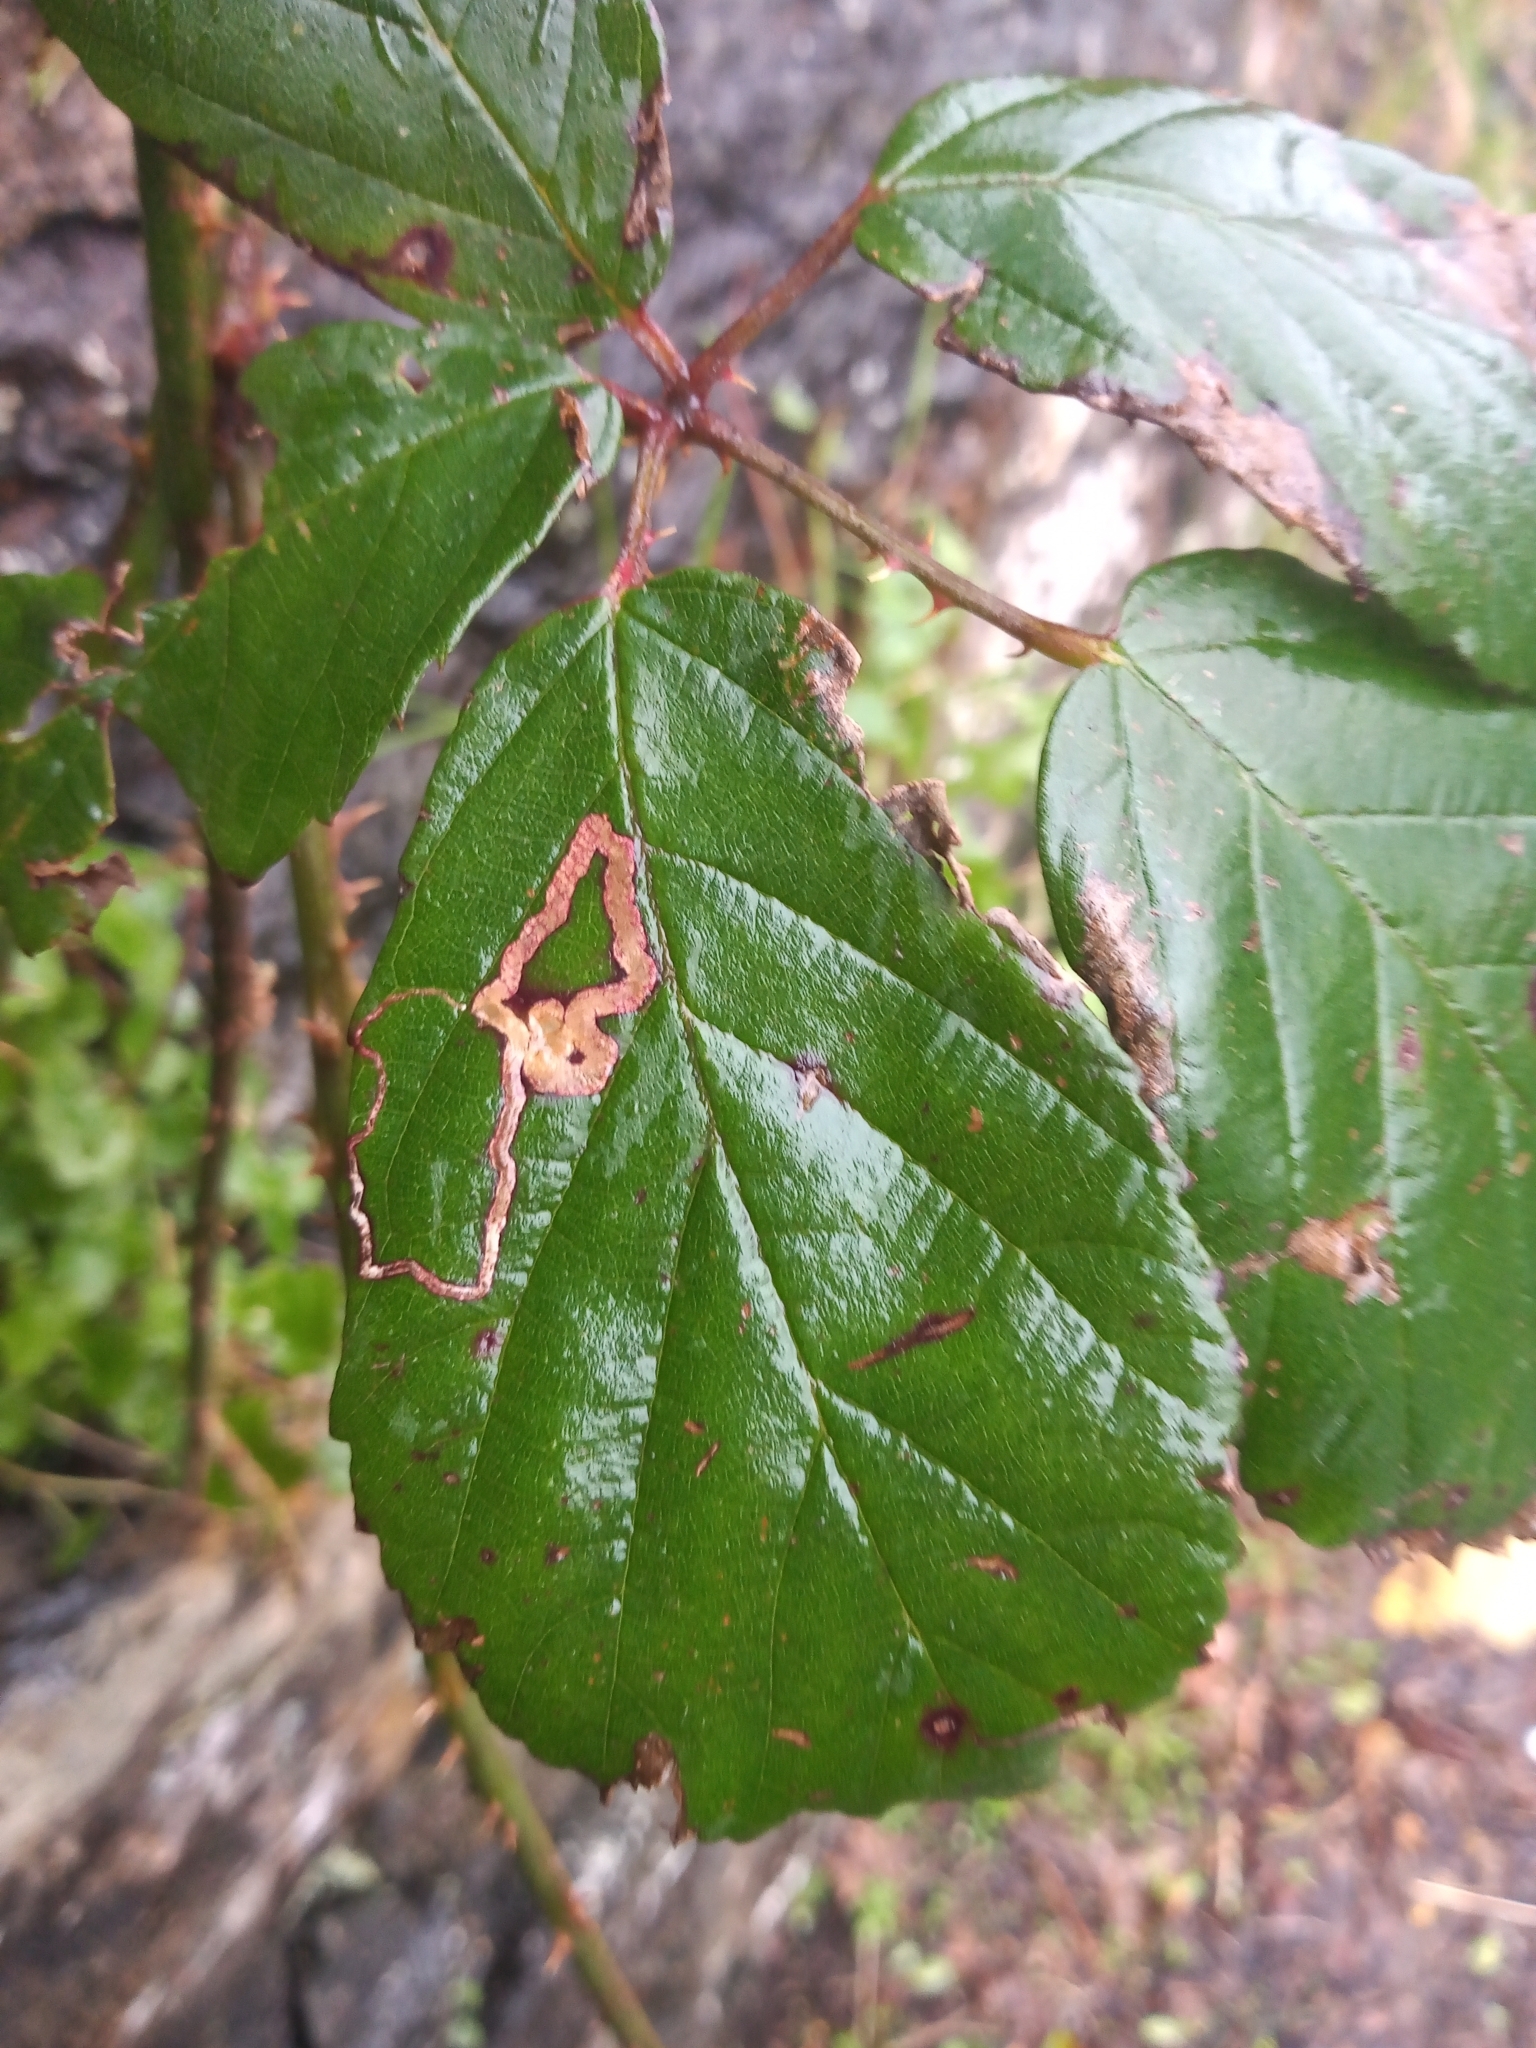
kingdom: Animalia
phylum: Arthropoda
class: Insecta
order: Lepidoptera
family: Nepticulidae
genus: Stigmella
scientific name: Stigmella aurella
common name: Golden pigmy
